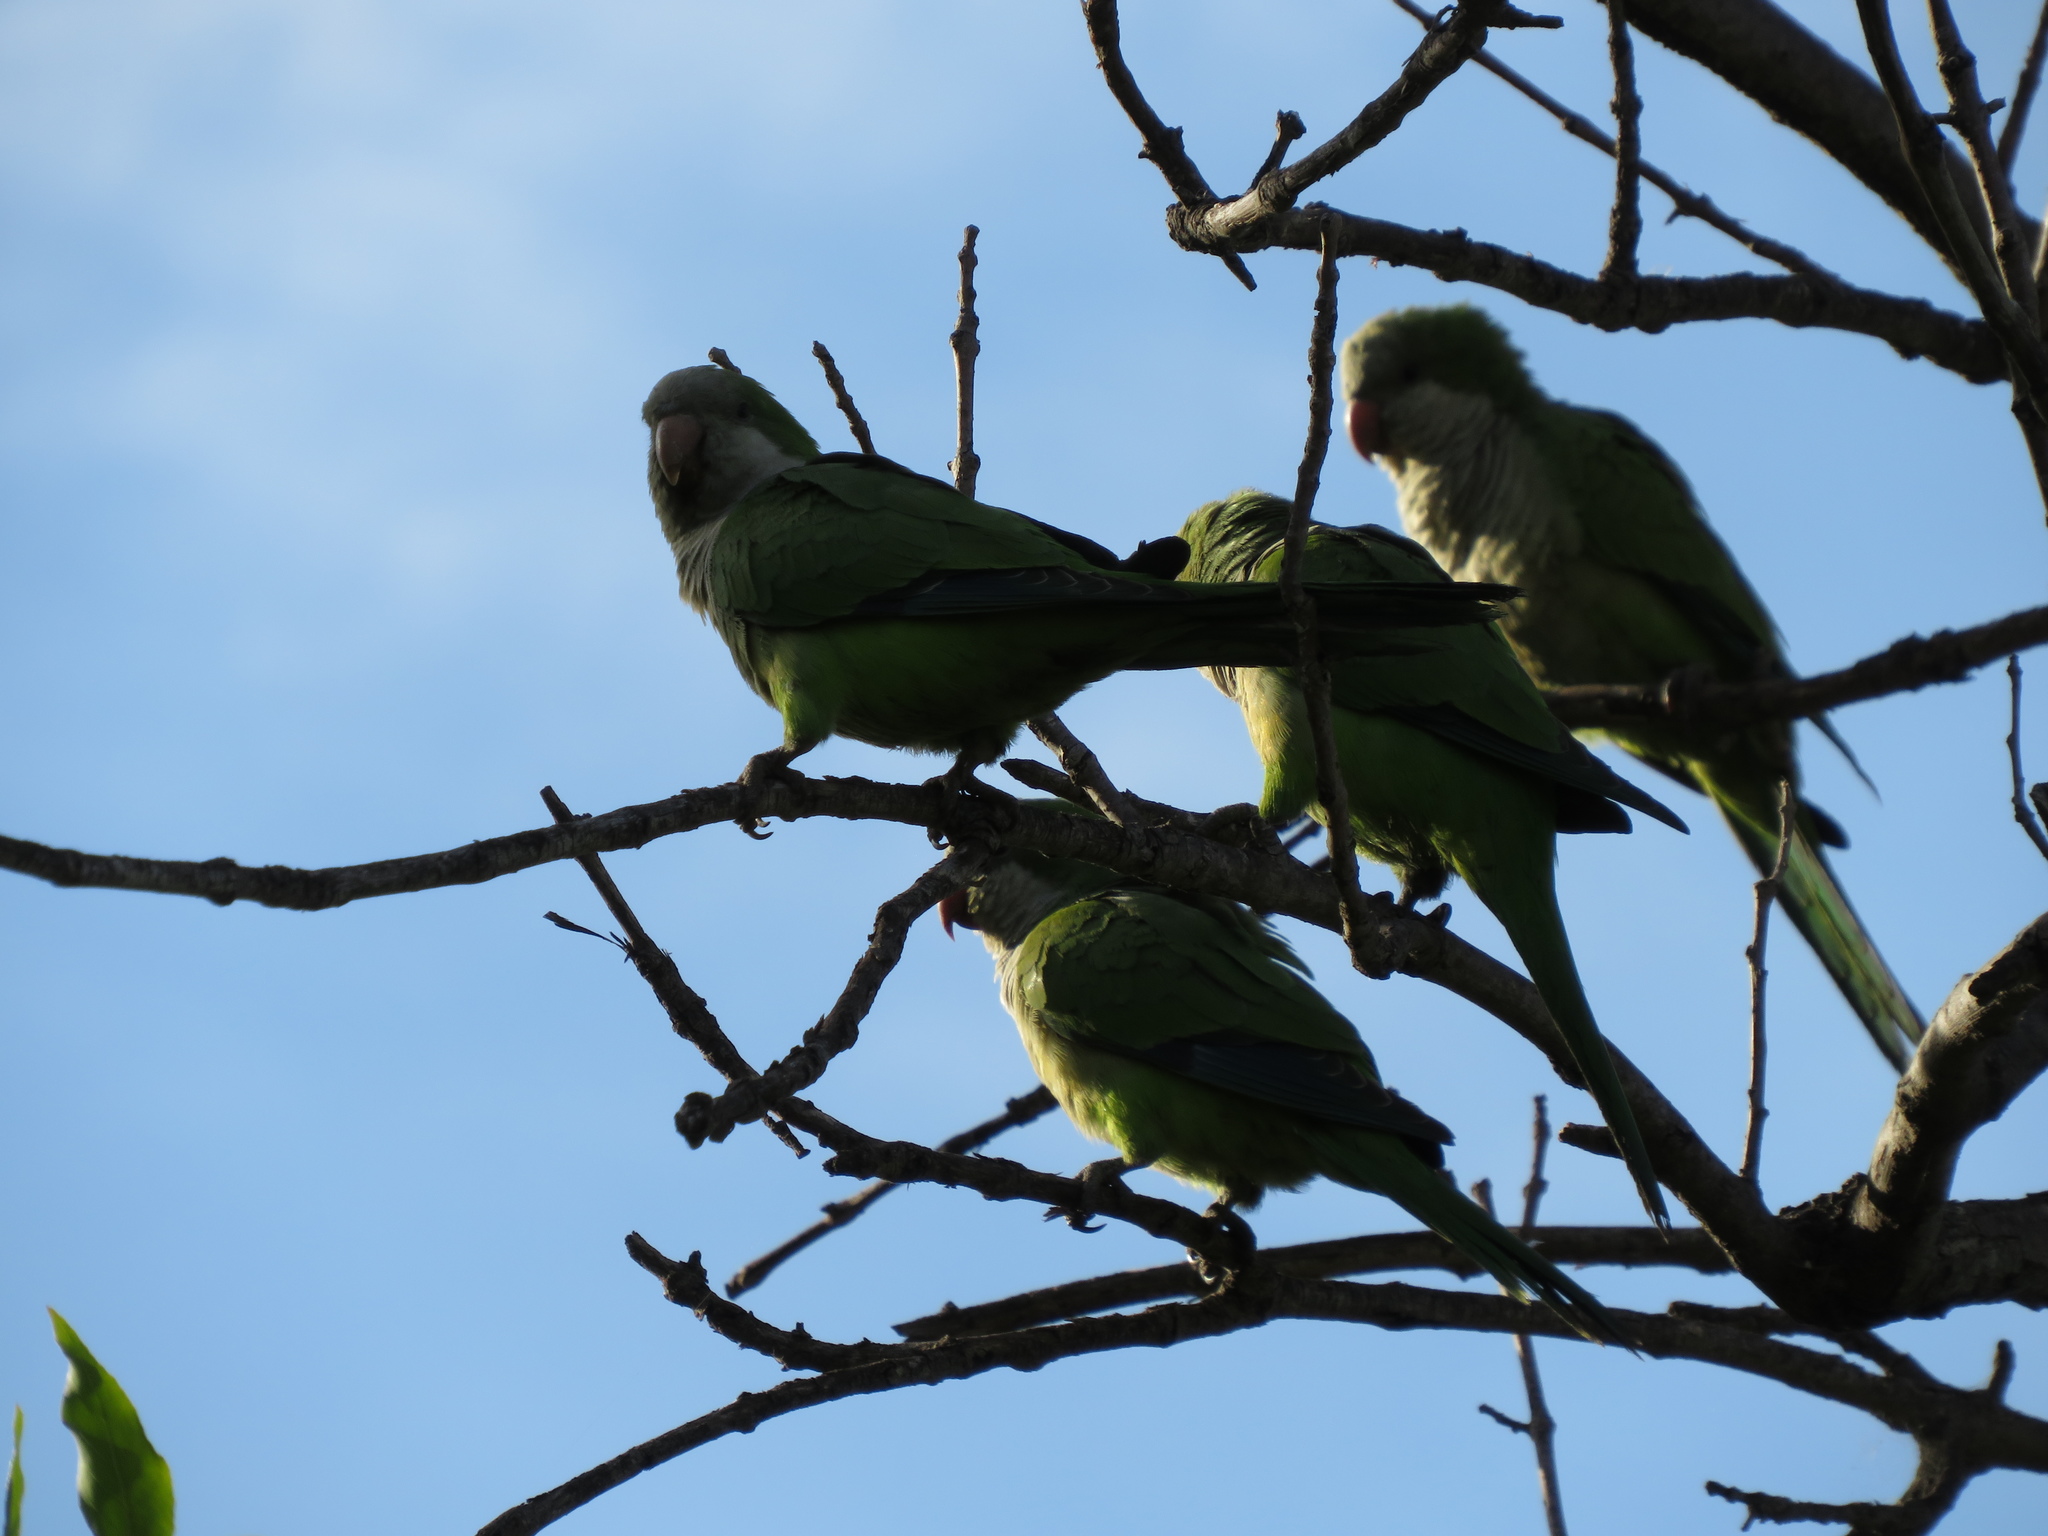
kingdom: Animalia
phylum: Chordata
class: Aves
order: Psittaciformes
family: Psittacidae
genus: Myiopsitta
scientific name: Myiopsitta monachus
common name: Monk parakeet
